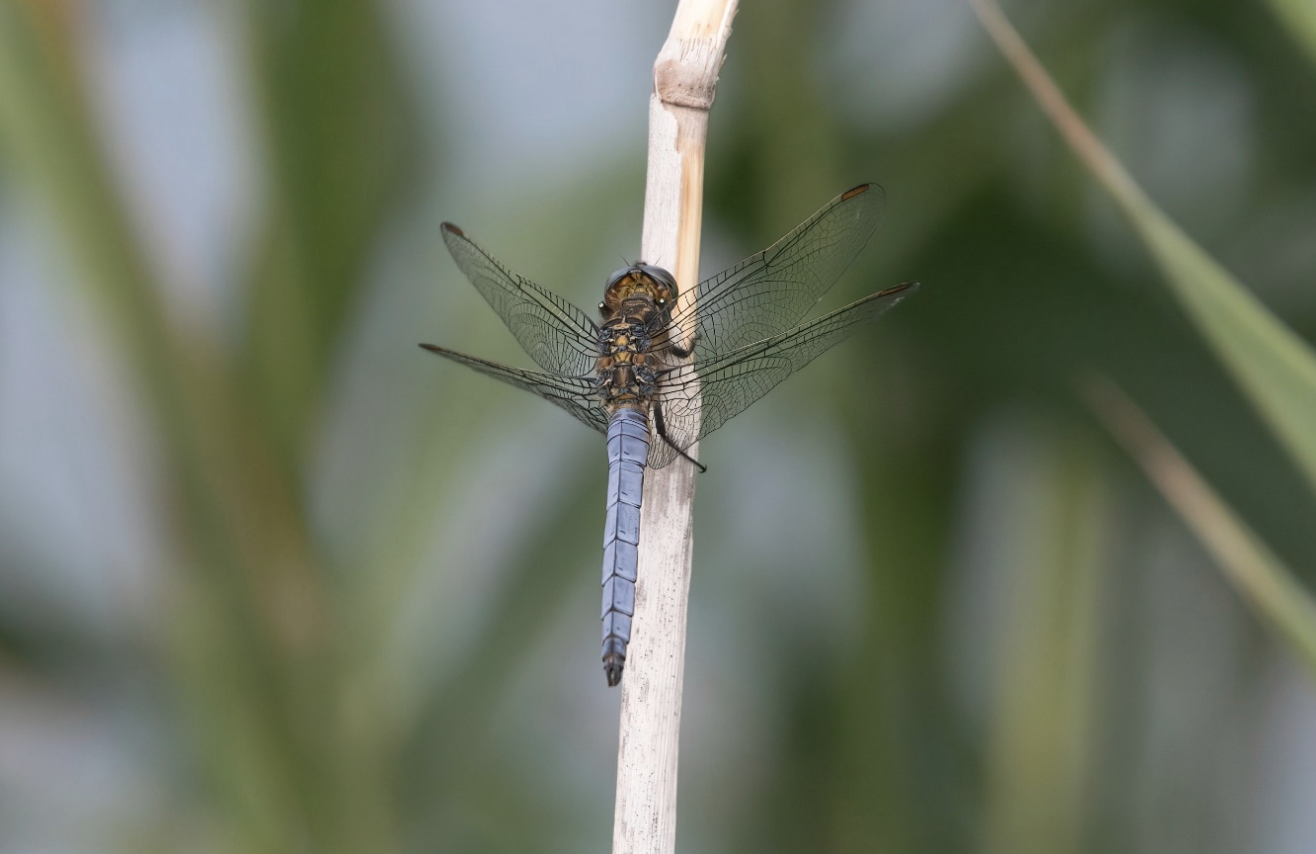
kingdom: Animalia
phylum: Arthropoda
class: Insecta
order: Odonata
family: Libellulidae
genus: Orthetrum
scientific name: Orthetrum coerulescens
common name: Keeled skimmer
